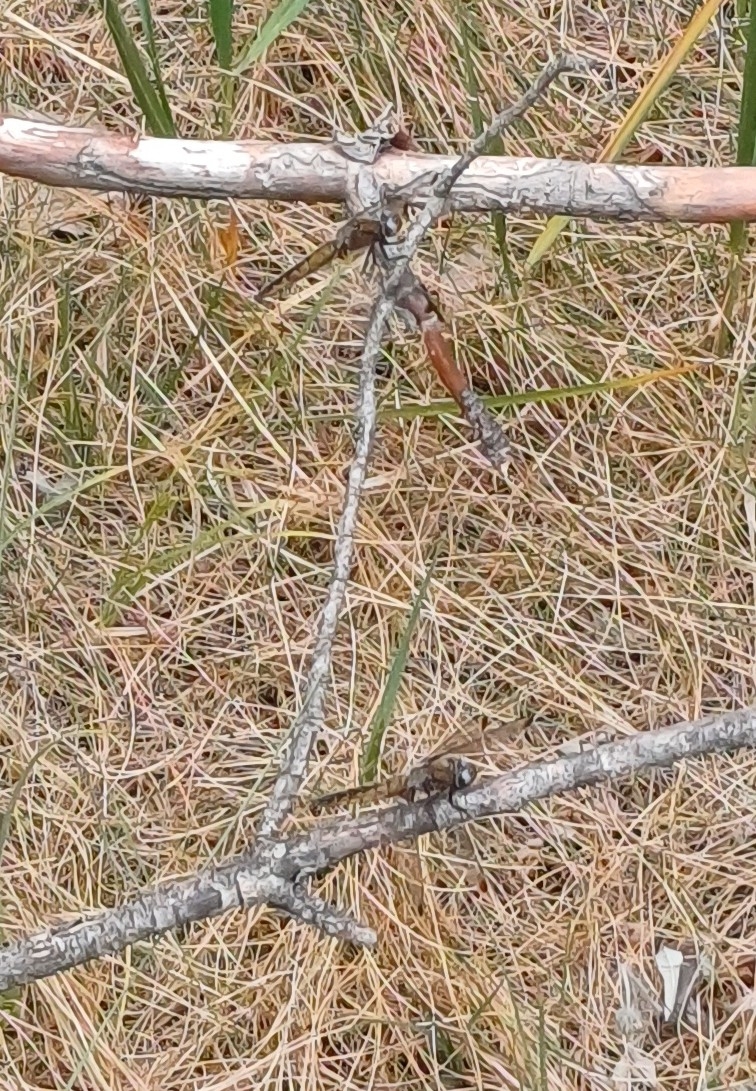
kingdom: Animalia
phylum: Arthropoda
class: Insecta
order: Odonata
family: Libellulidae
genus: Libellula
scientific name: Libellula fulva
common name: Blue chaser
